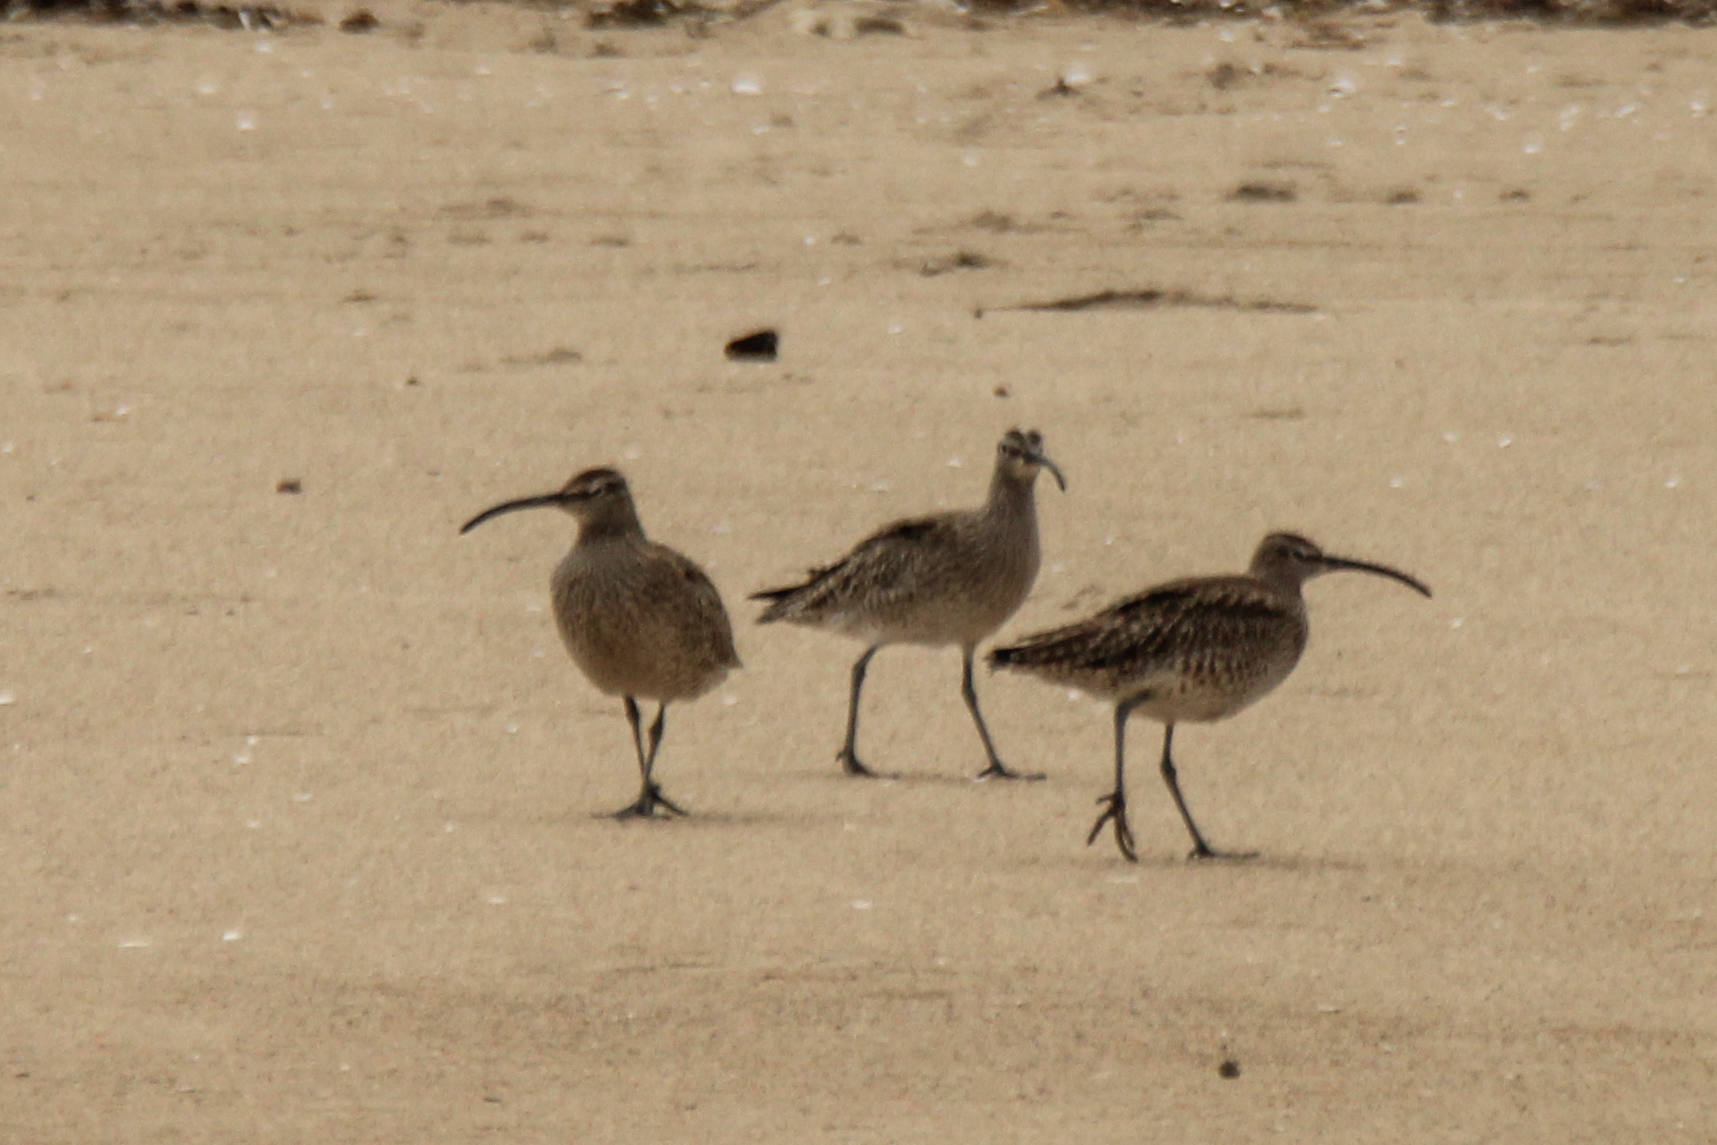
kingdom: Animalia
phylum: Chordata
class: Aves
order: Charadriiformes
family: Scolopacidae
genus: Numenius
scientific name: Numenius phaeopus
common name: Whimbrel
